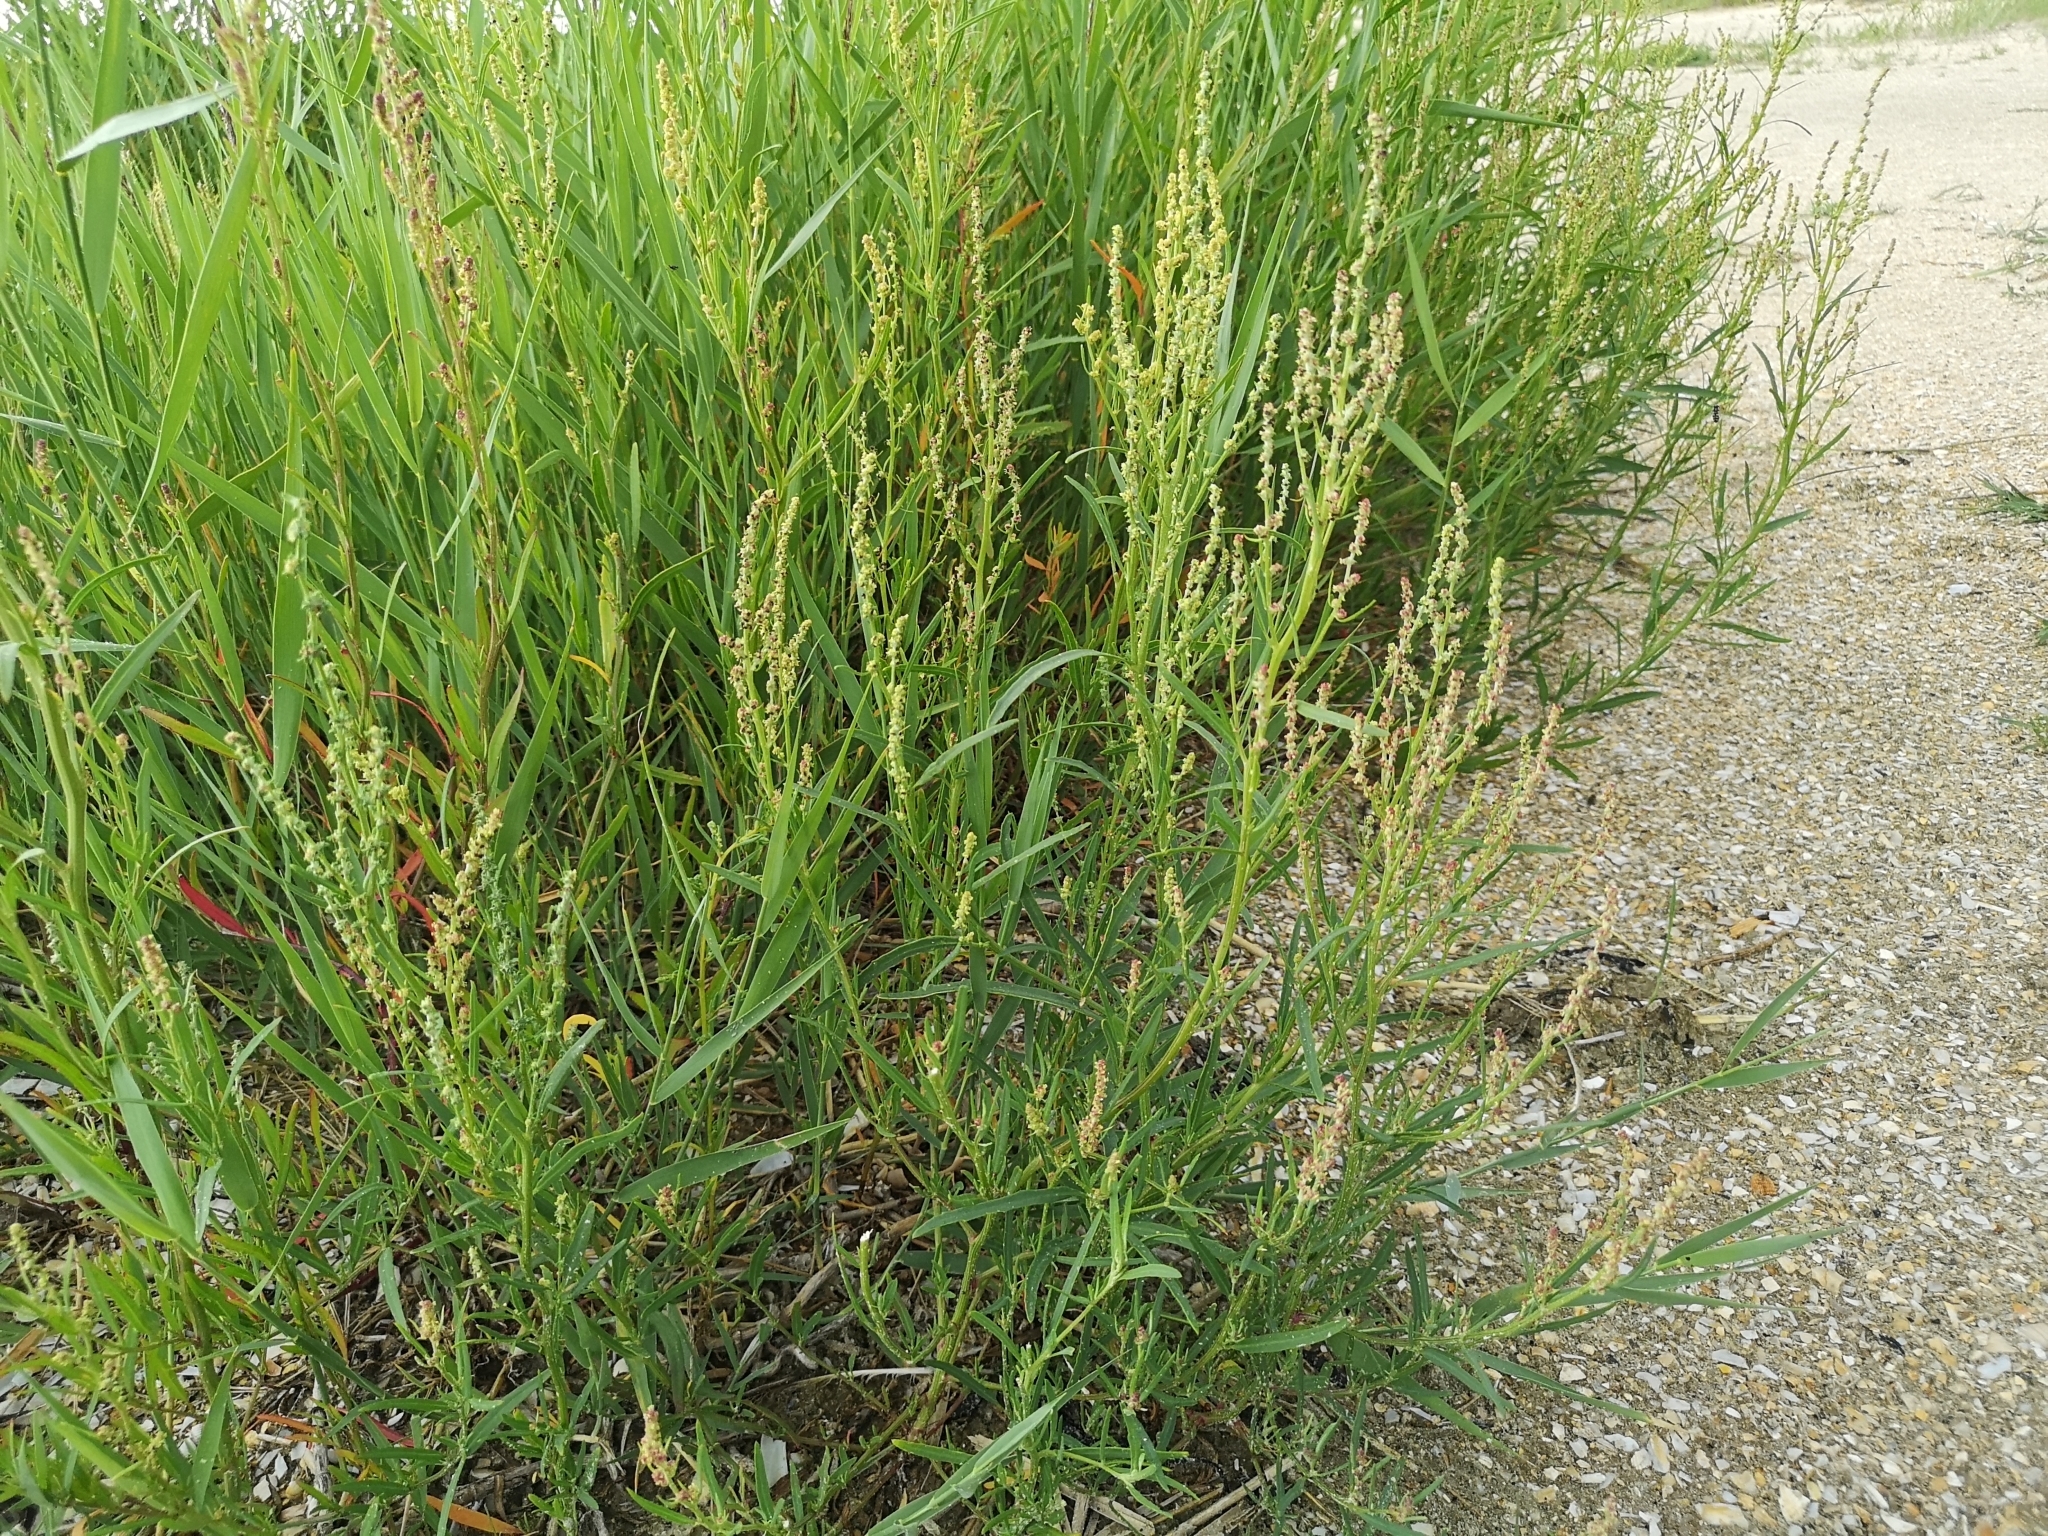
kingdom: Plantae
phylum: Tracheophyta
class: Magnoliopsida
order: Caryophyllales
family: Amaranthaceae
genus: Atriplex
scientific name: Atriplex littoralis
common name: Grass-leaved orache
